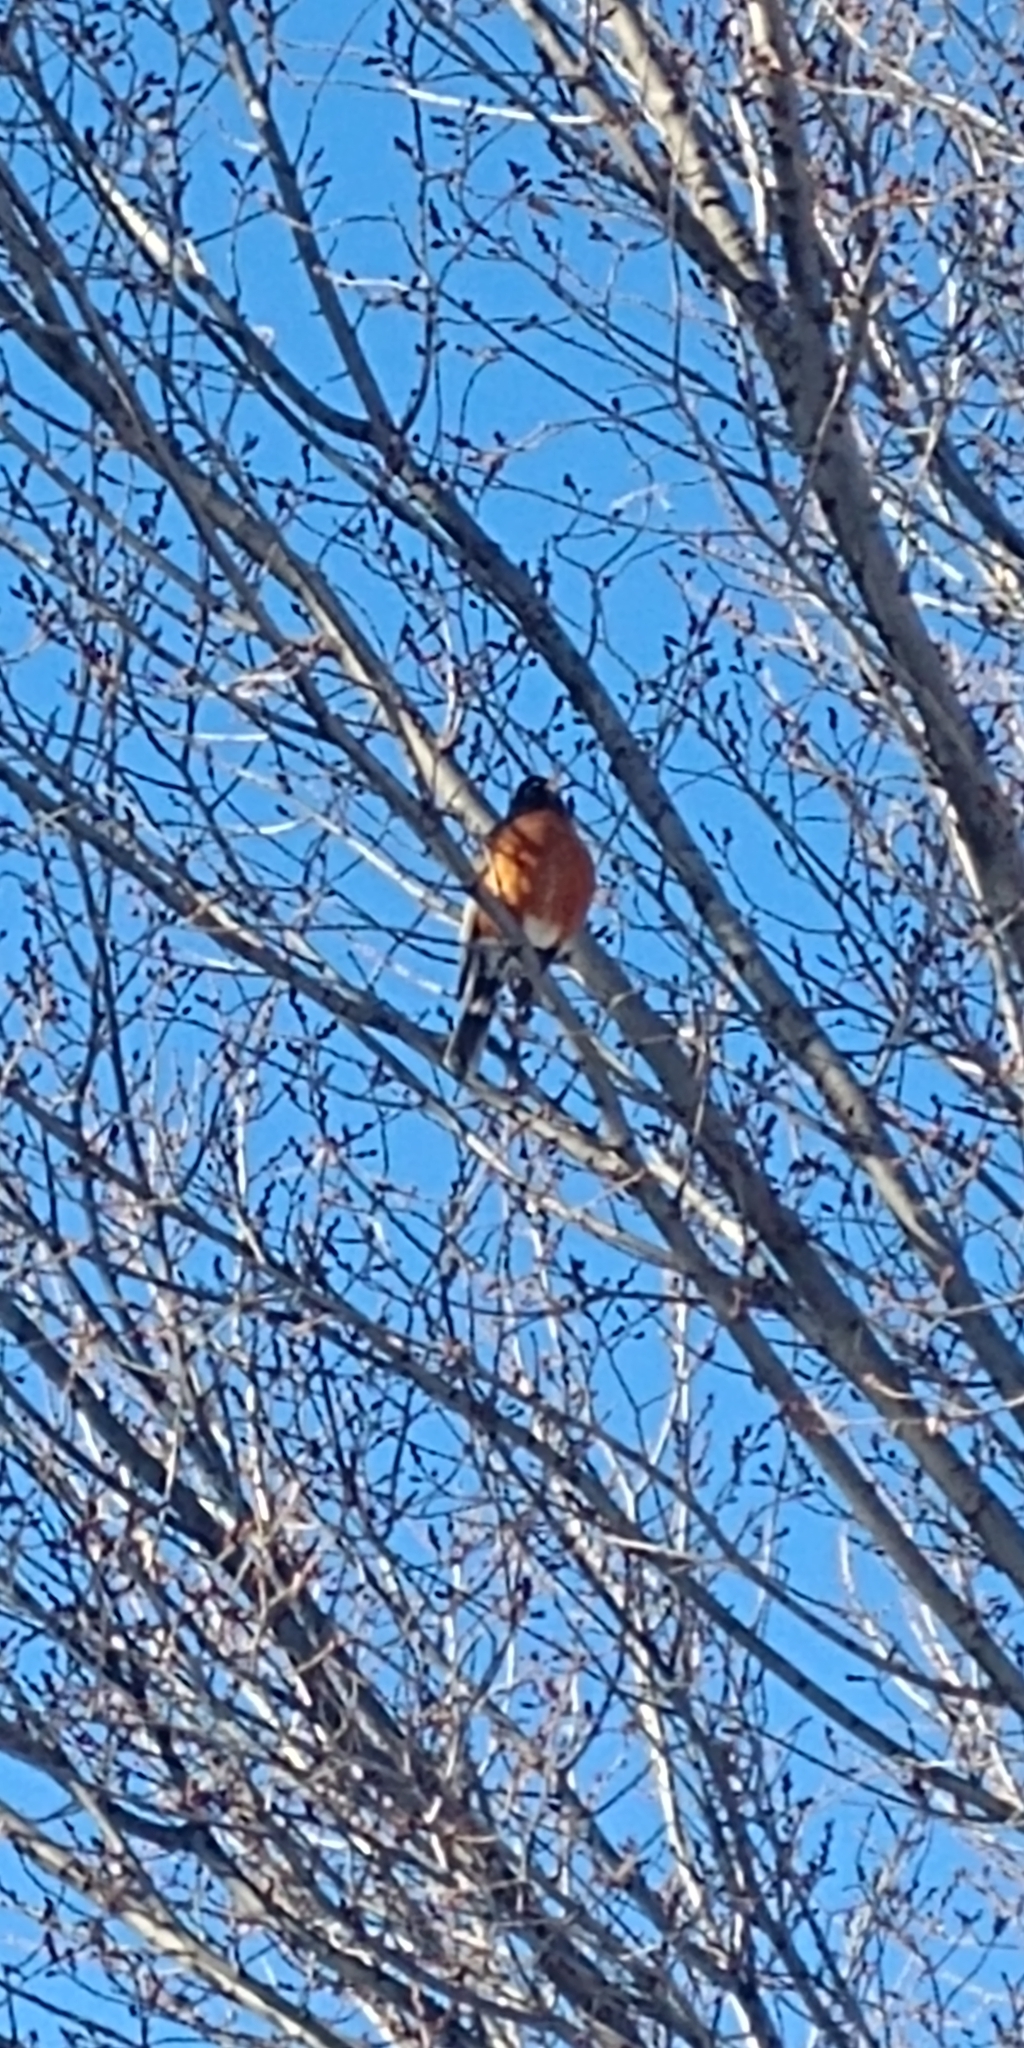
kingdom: Animalia
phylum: Chordata
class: Aves
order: Passeriformes
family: Turdidae
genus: Turdus
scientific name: Turdus migratorius
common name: American robin
